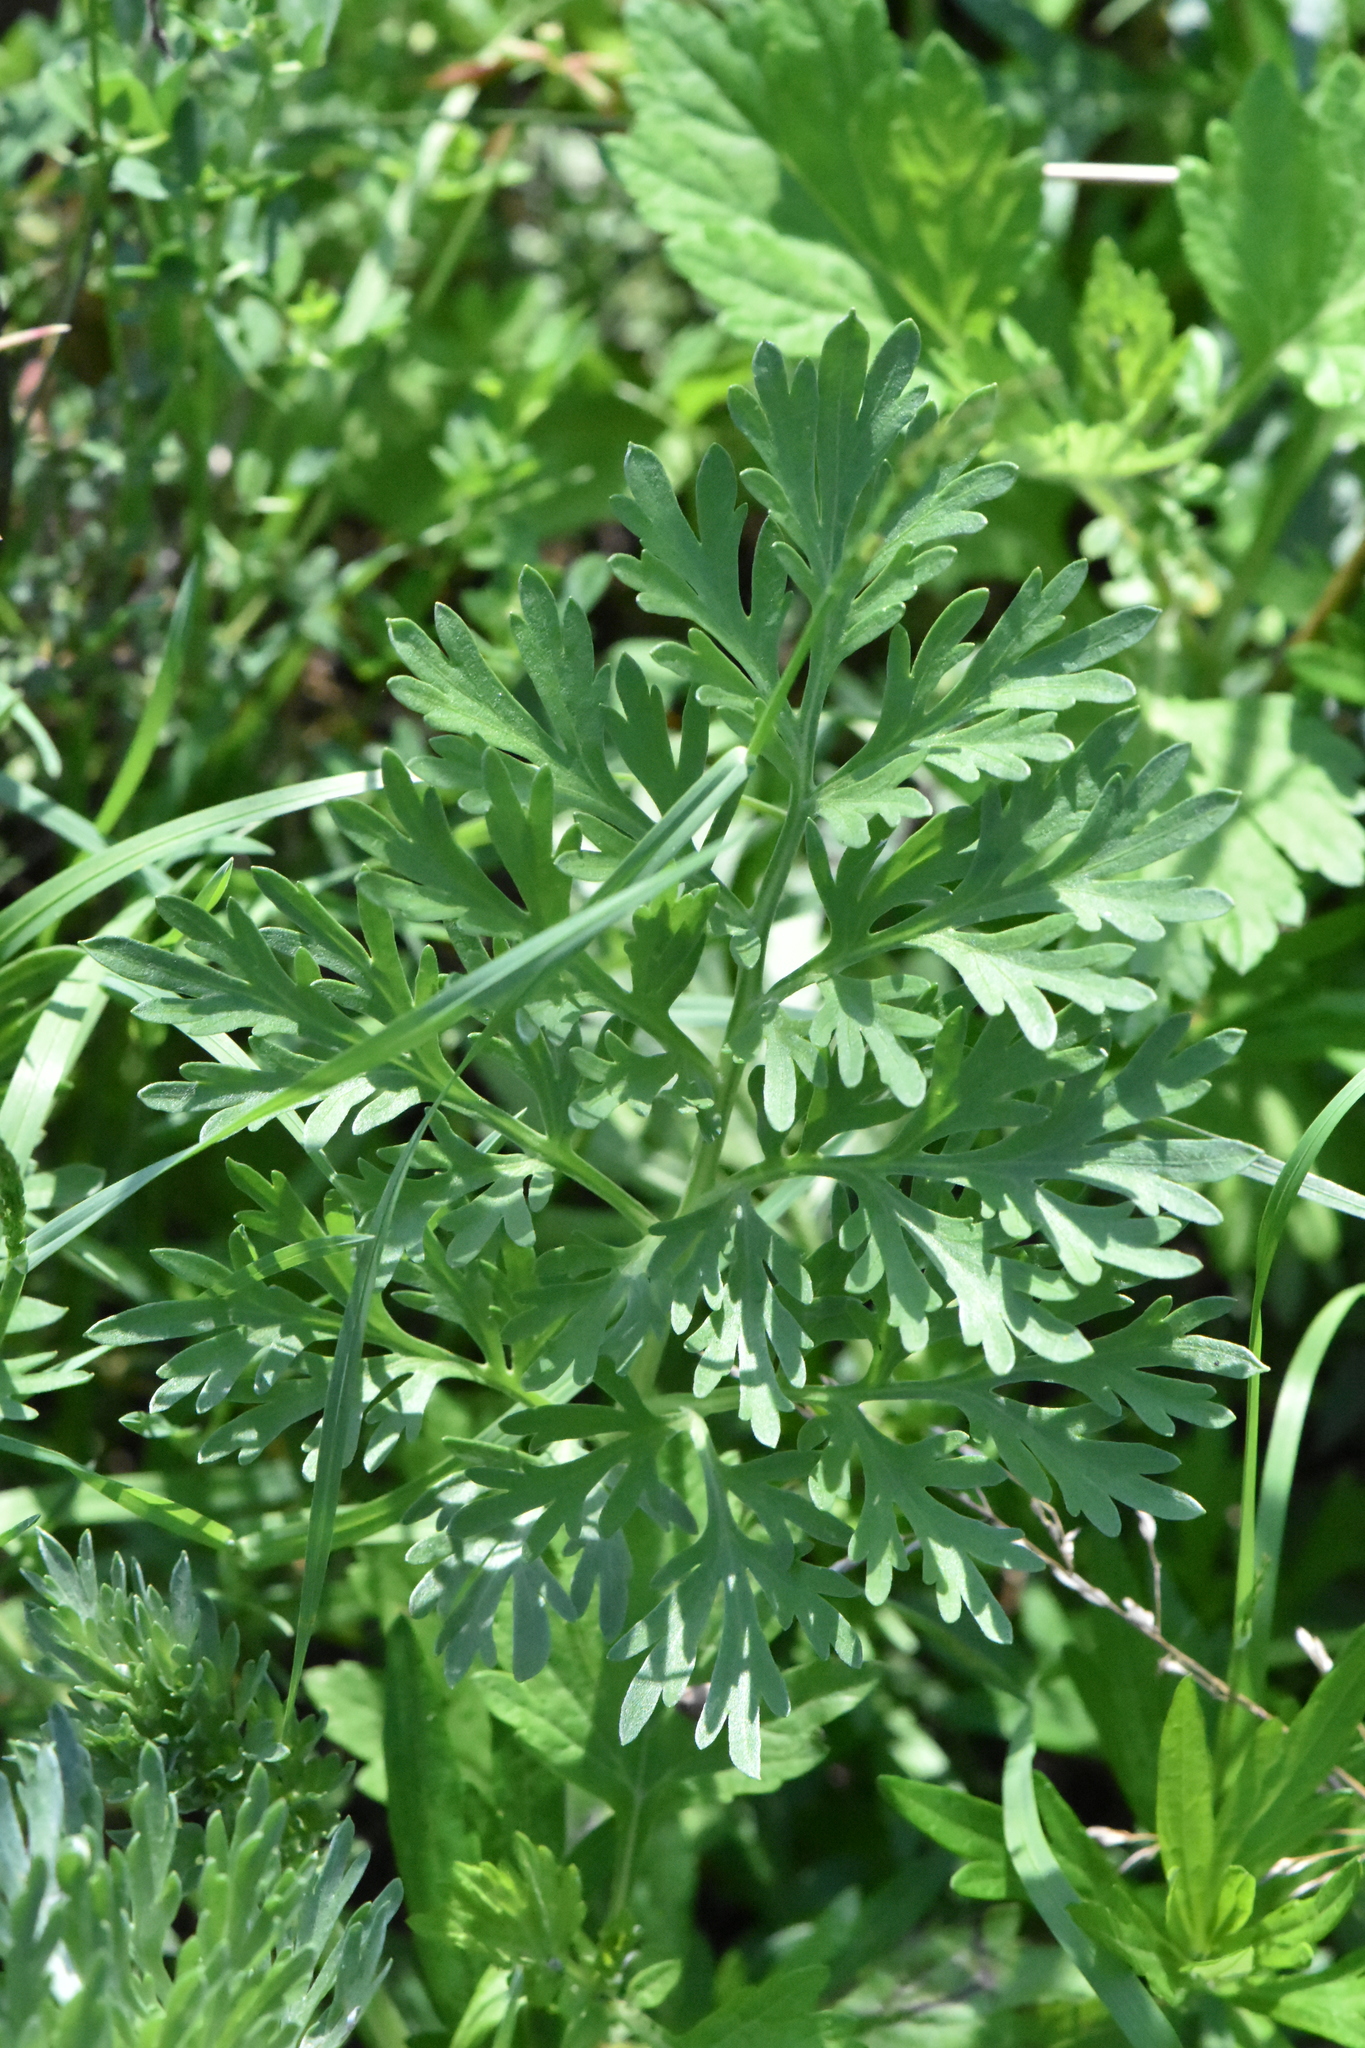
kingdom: Plantae
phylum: Tracheophyta
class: Magnoliopsida
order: Asterales
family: Asteraceae
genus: Artemisia
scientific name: Artemisia absinthium
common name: Wormwood
